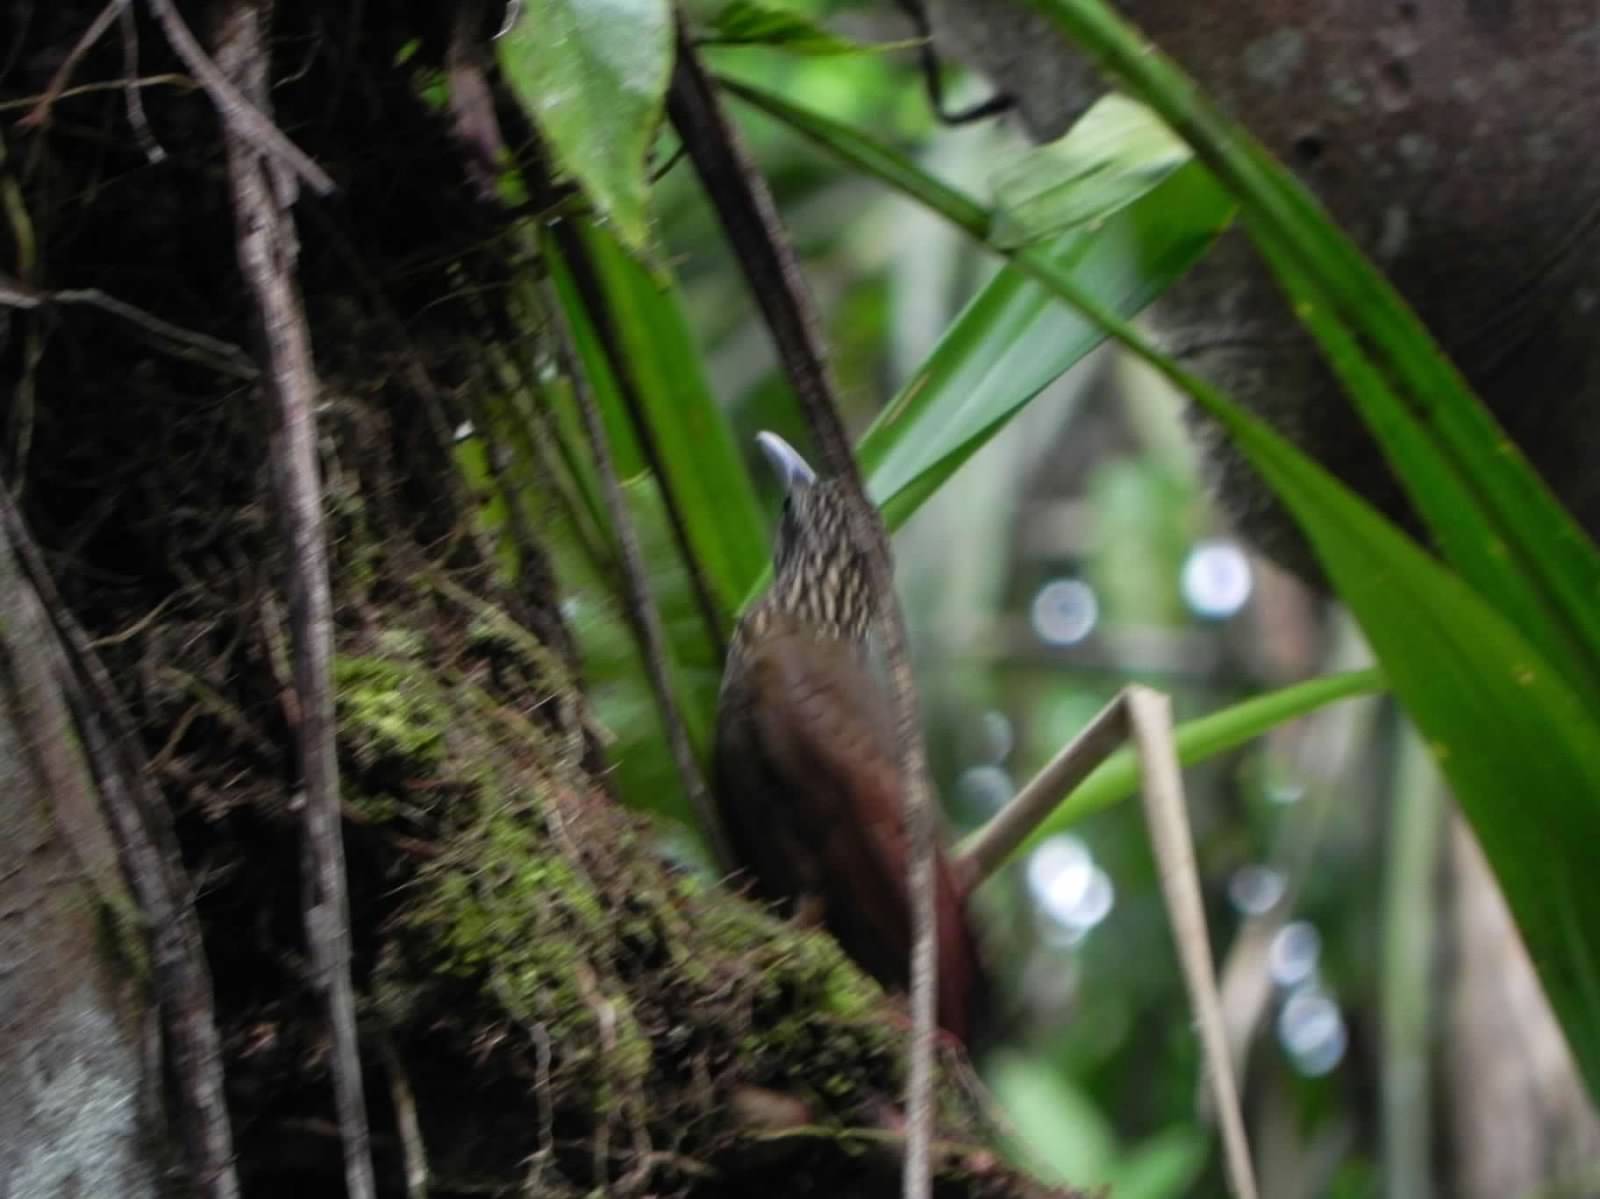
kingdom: Animalia
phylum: Chordata
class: Aves
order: Passeriformes
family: Furnariidae
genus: Xiphorhynchus
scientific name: Xiphorhynchus guttatus
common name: Buff-throated woodcreeper
